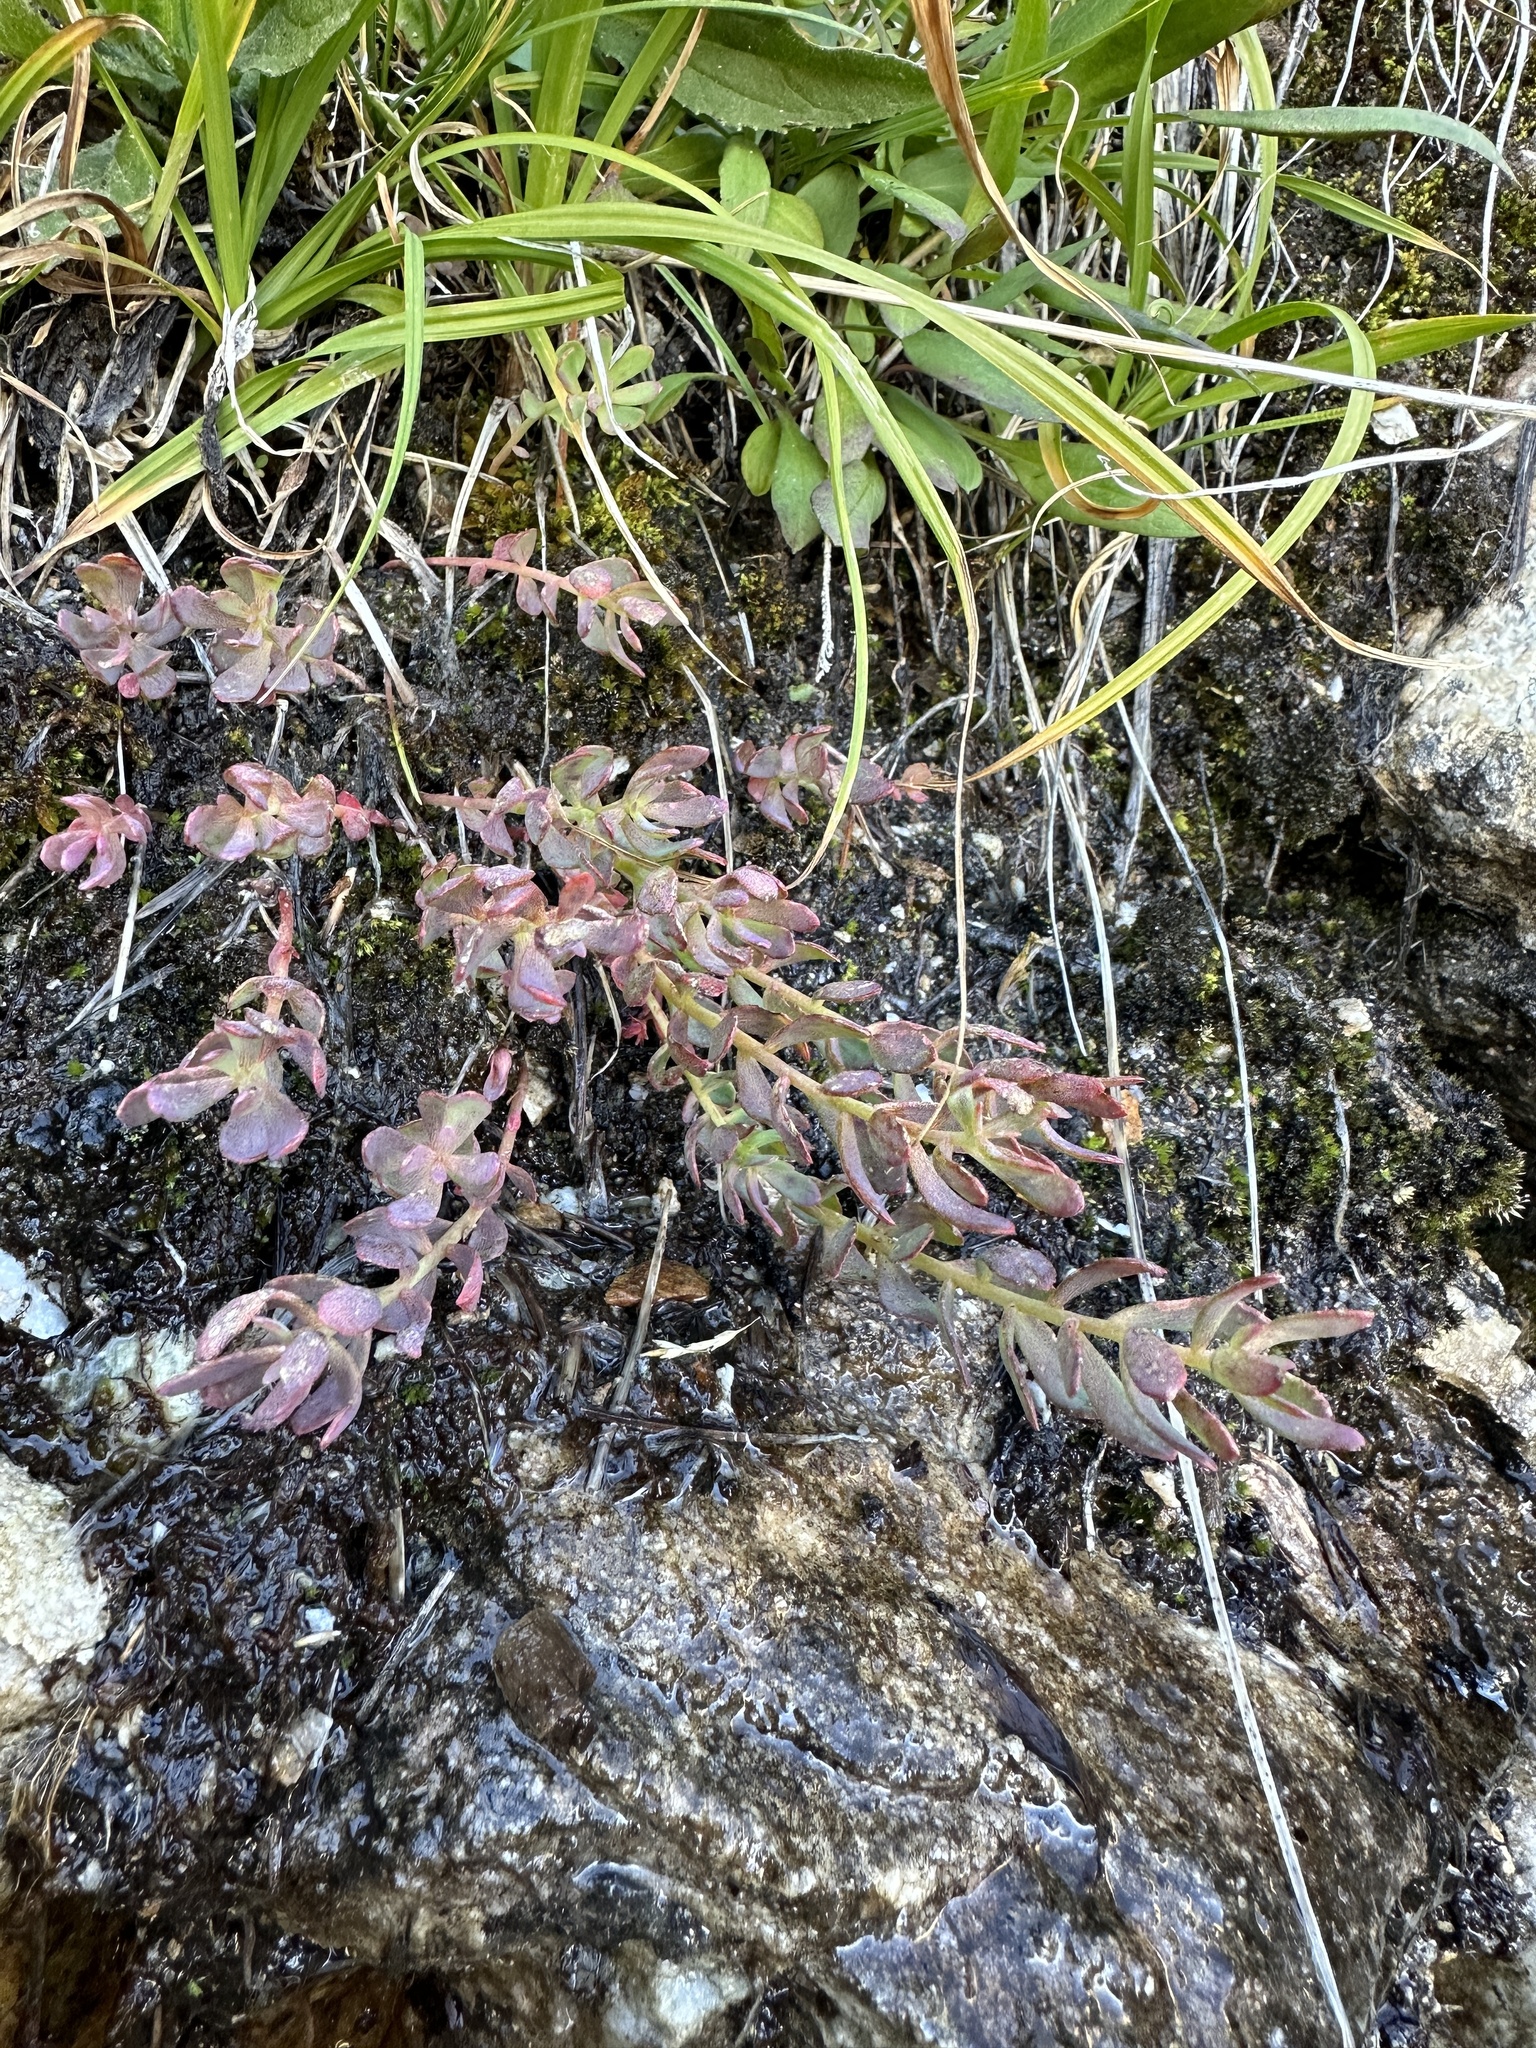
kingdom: Plantae
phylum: Tracheophyta
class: Magnoliopsida
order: Saxifragales
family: Crassulaceae
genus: Rhodiola
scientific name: Rhodiola integrifolia
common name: Western roseroot
